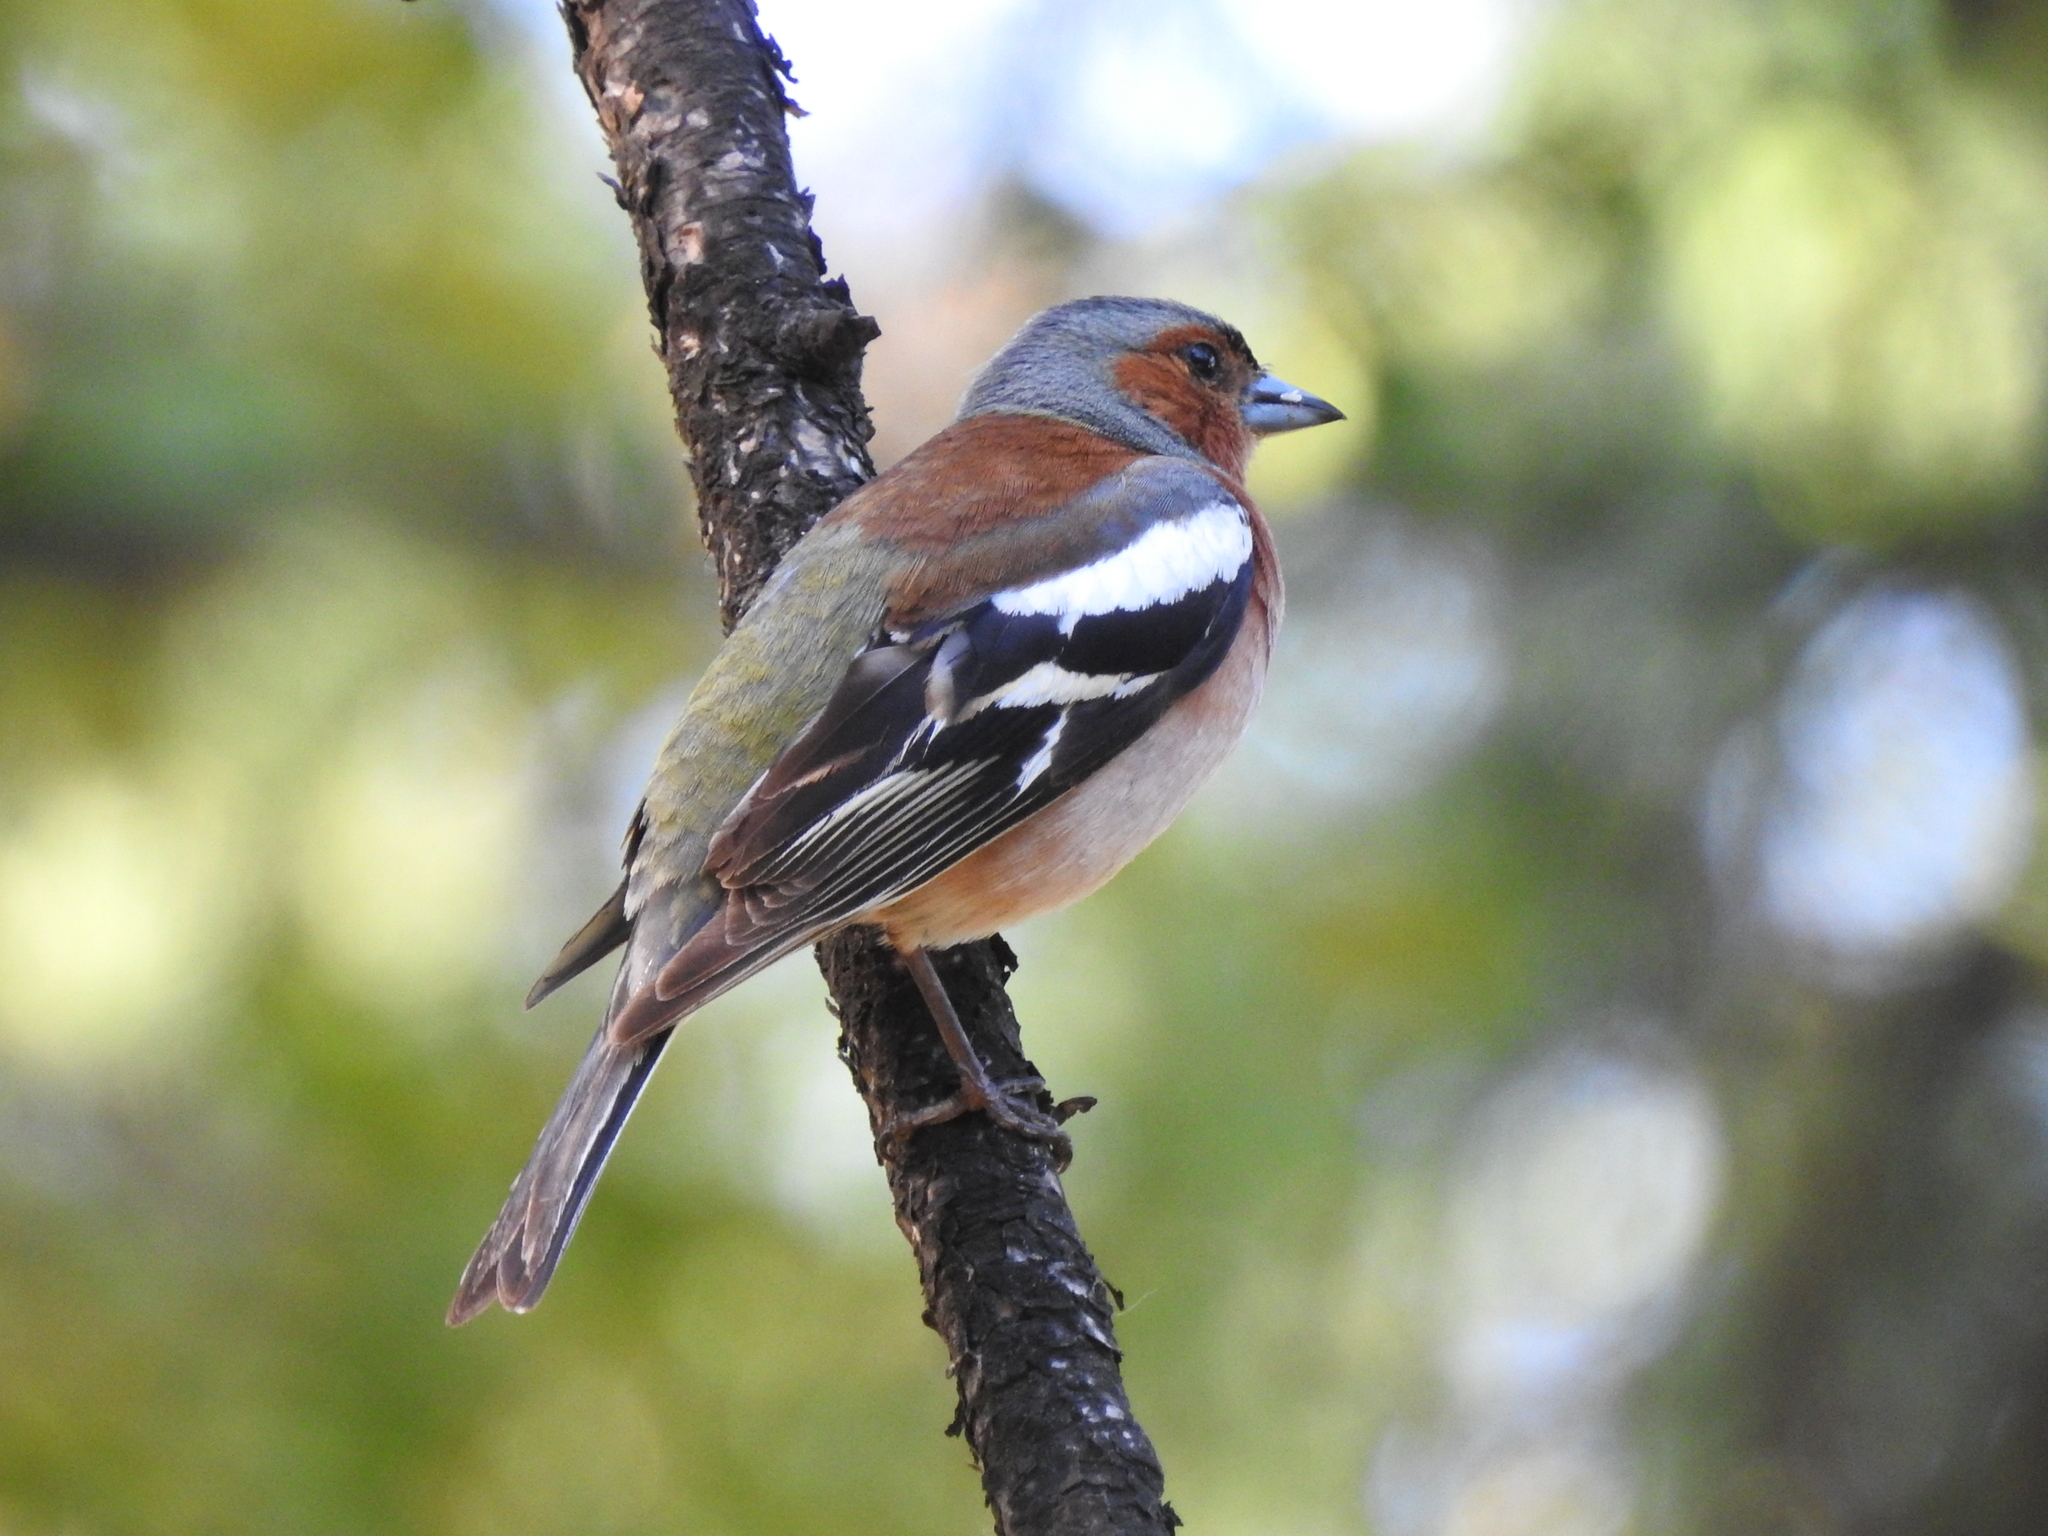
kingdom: Animalia
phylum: Chordata
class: Aves
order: Passeriformes
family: Fringillidae
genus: Fringilla
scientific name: Fringilla coelebs
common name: Common chaffinch
